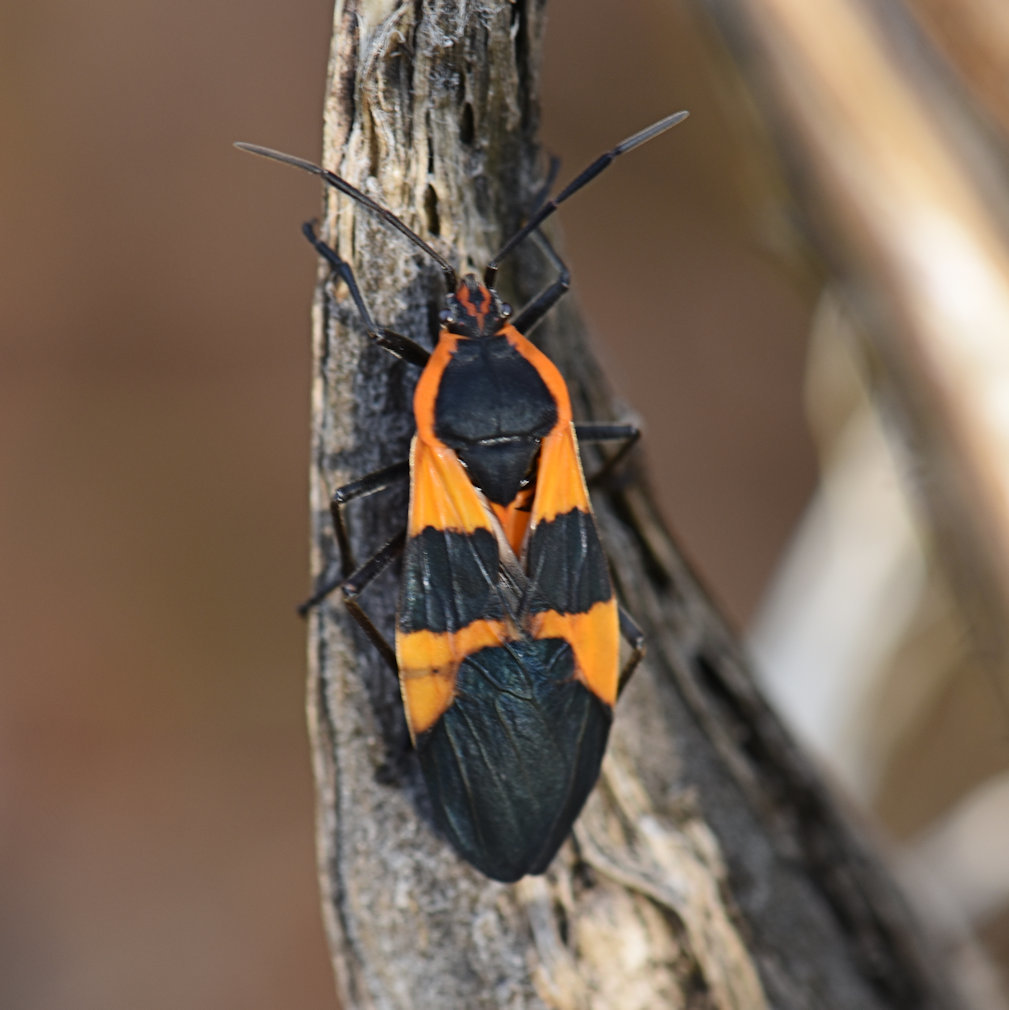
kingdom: Animalia
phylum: Arthropoda
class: Insecta
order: Hemiptera
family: Lygaeidae
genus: Oncopeltus
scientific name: Oncopeltus fasciatus
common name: Large milkweed bug
